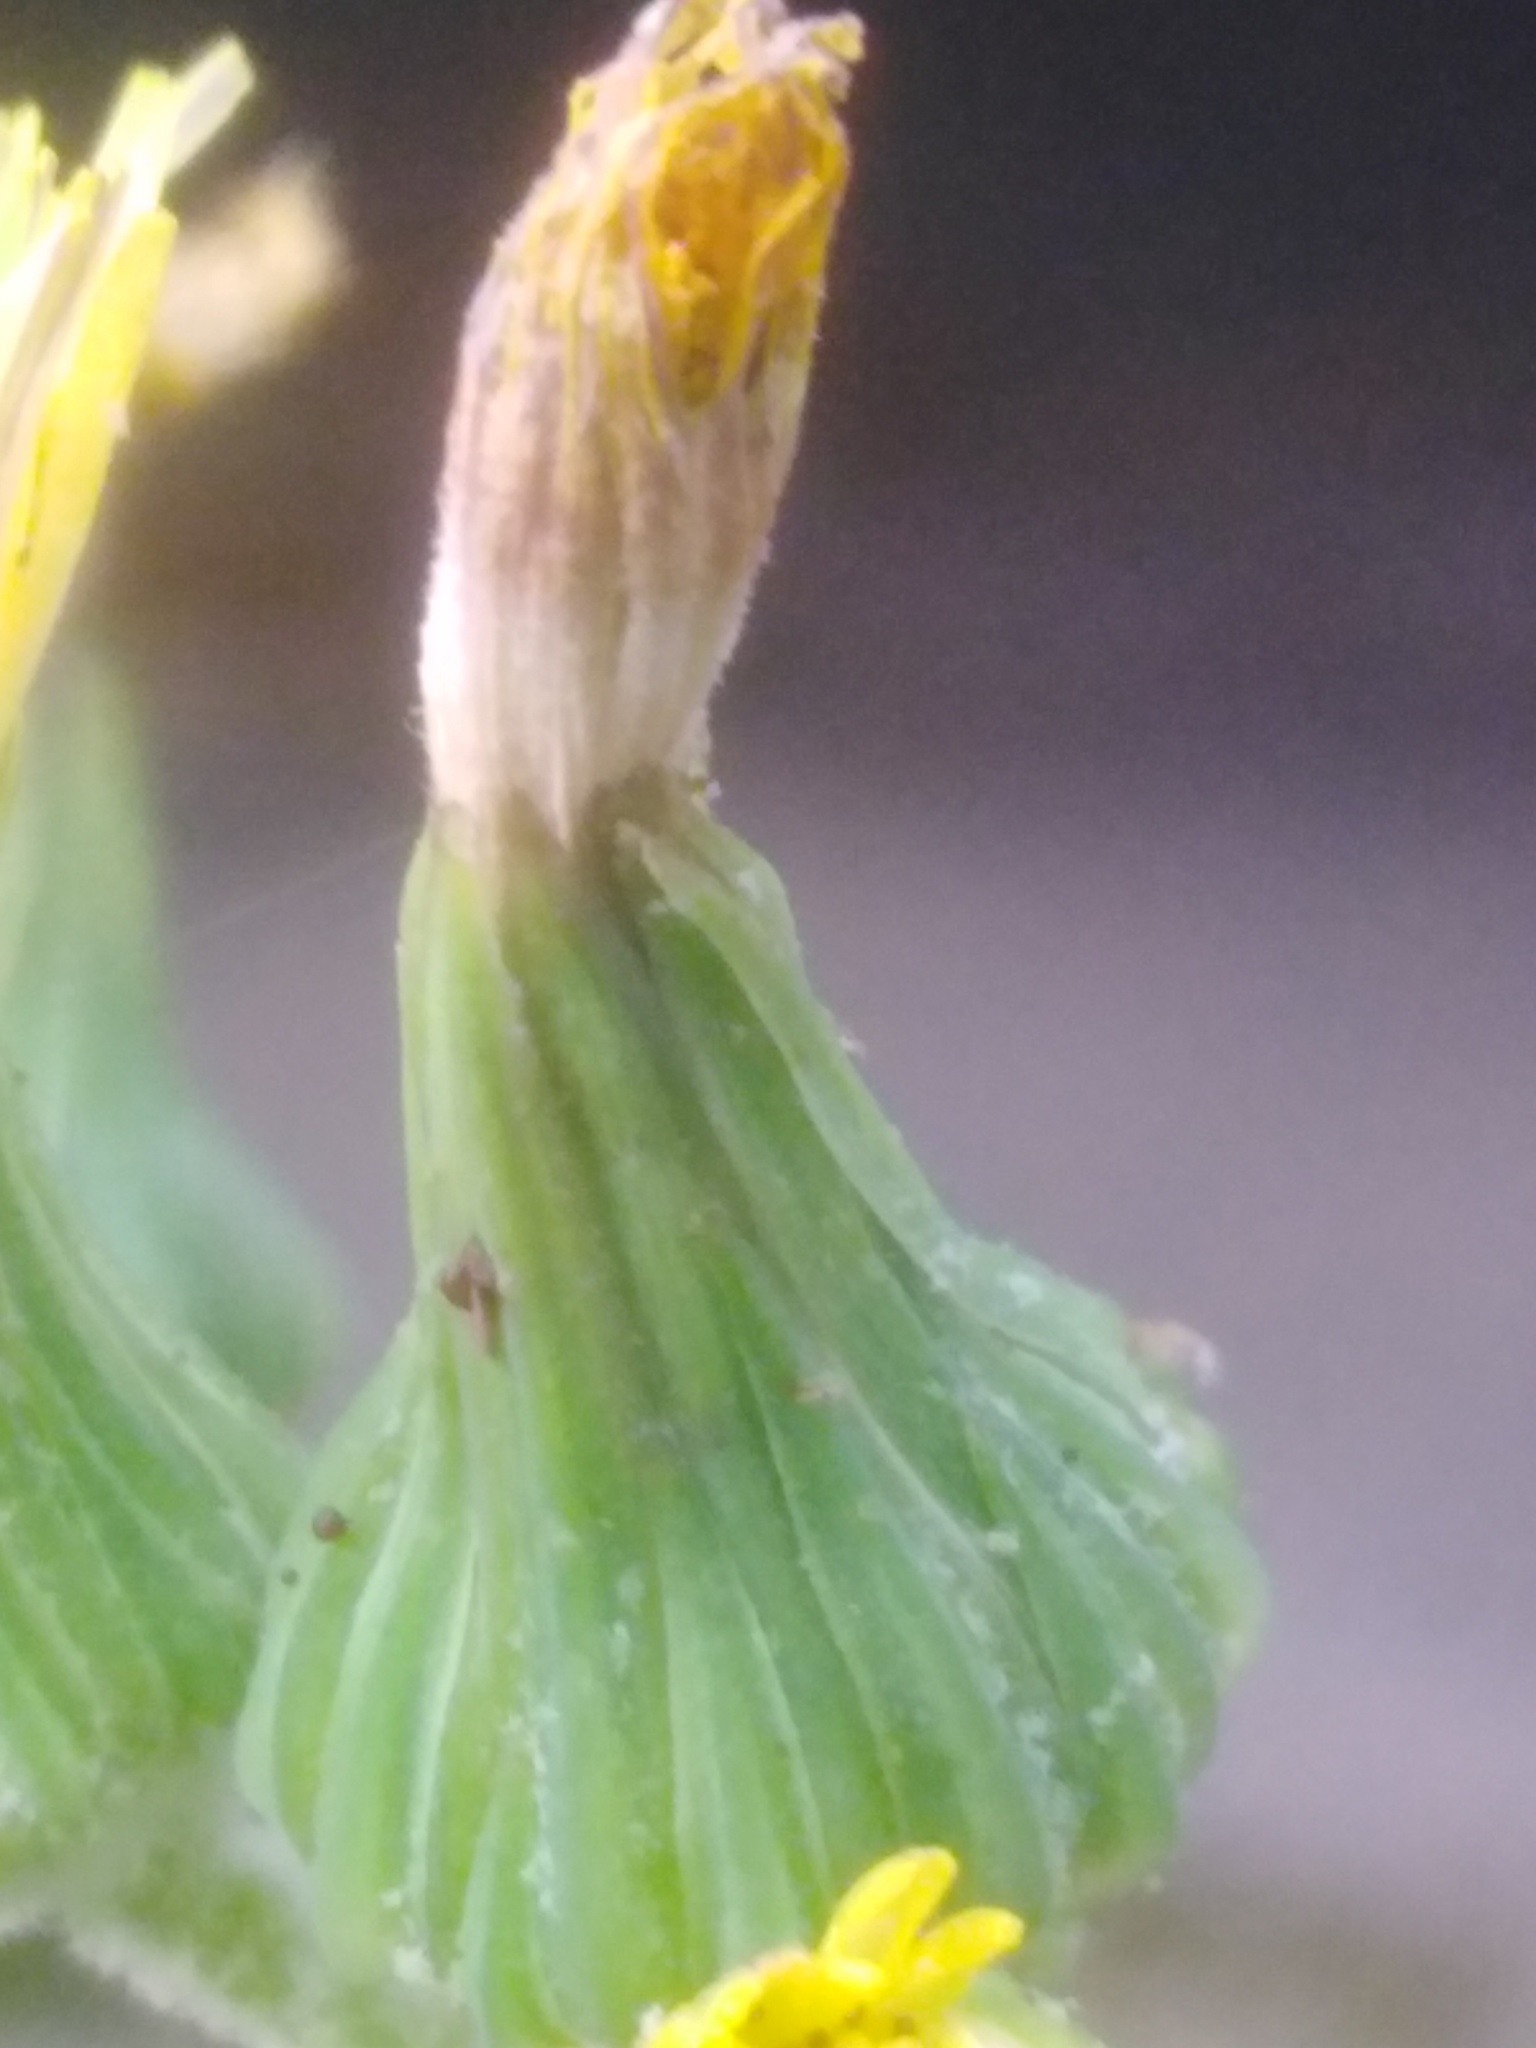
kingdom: Plantae
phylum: Tracheophyta
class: Magnoliopsida
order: Asterales
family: Asteraceae
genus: Sonchus
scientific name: Sonchus oleraceus
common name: Common sowthistle
